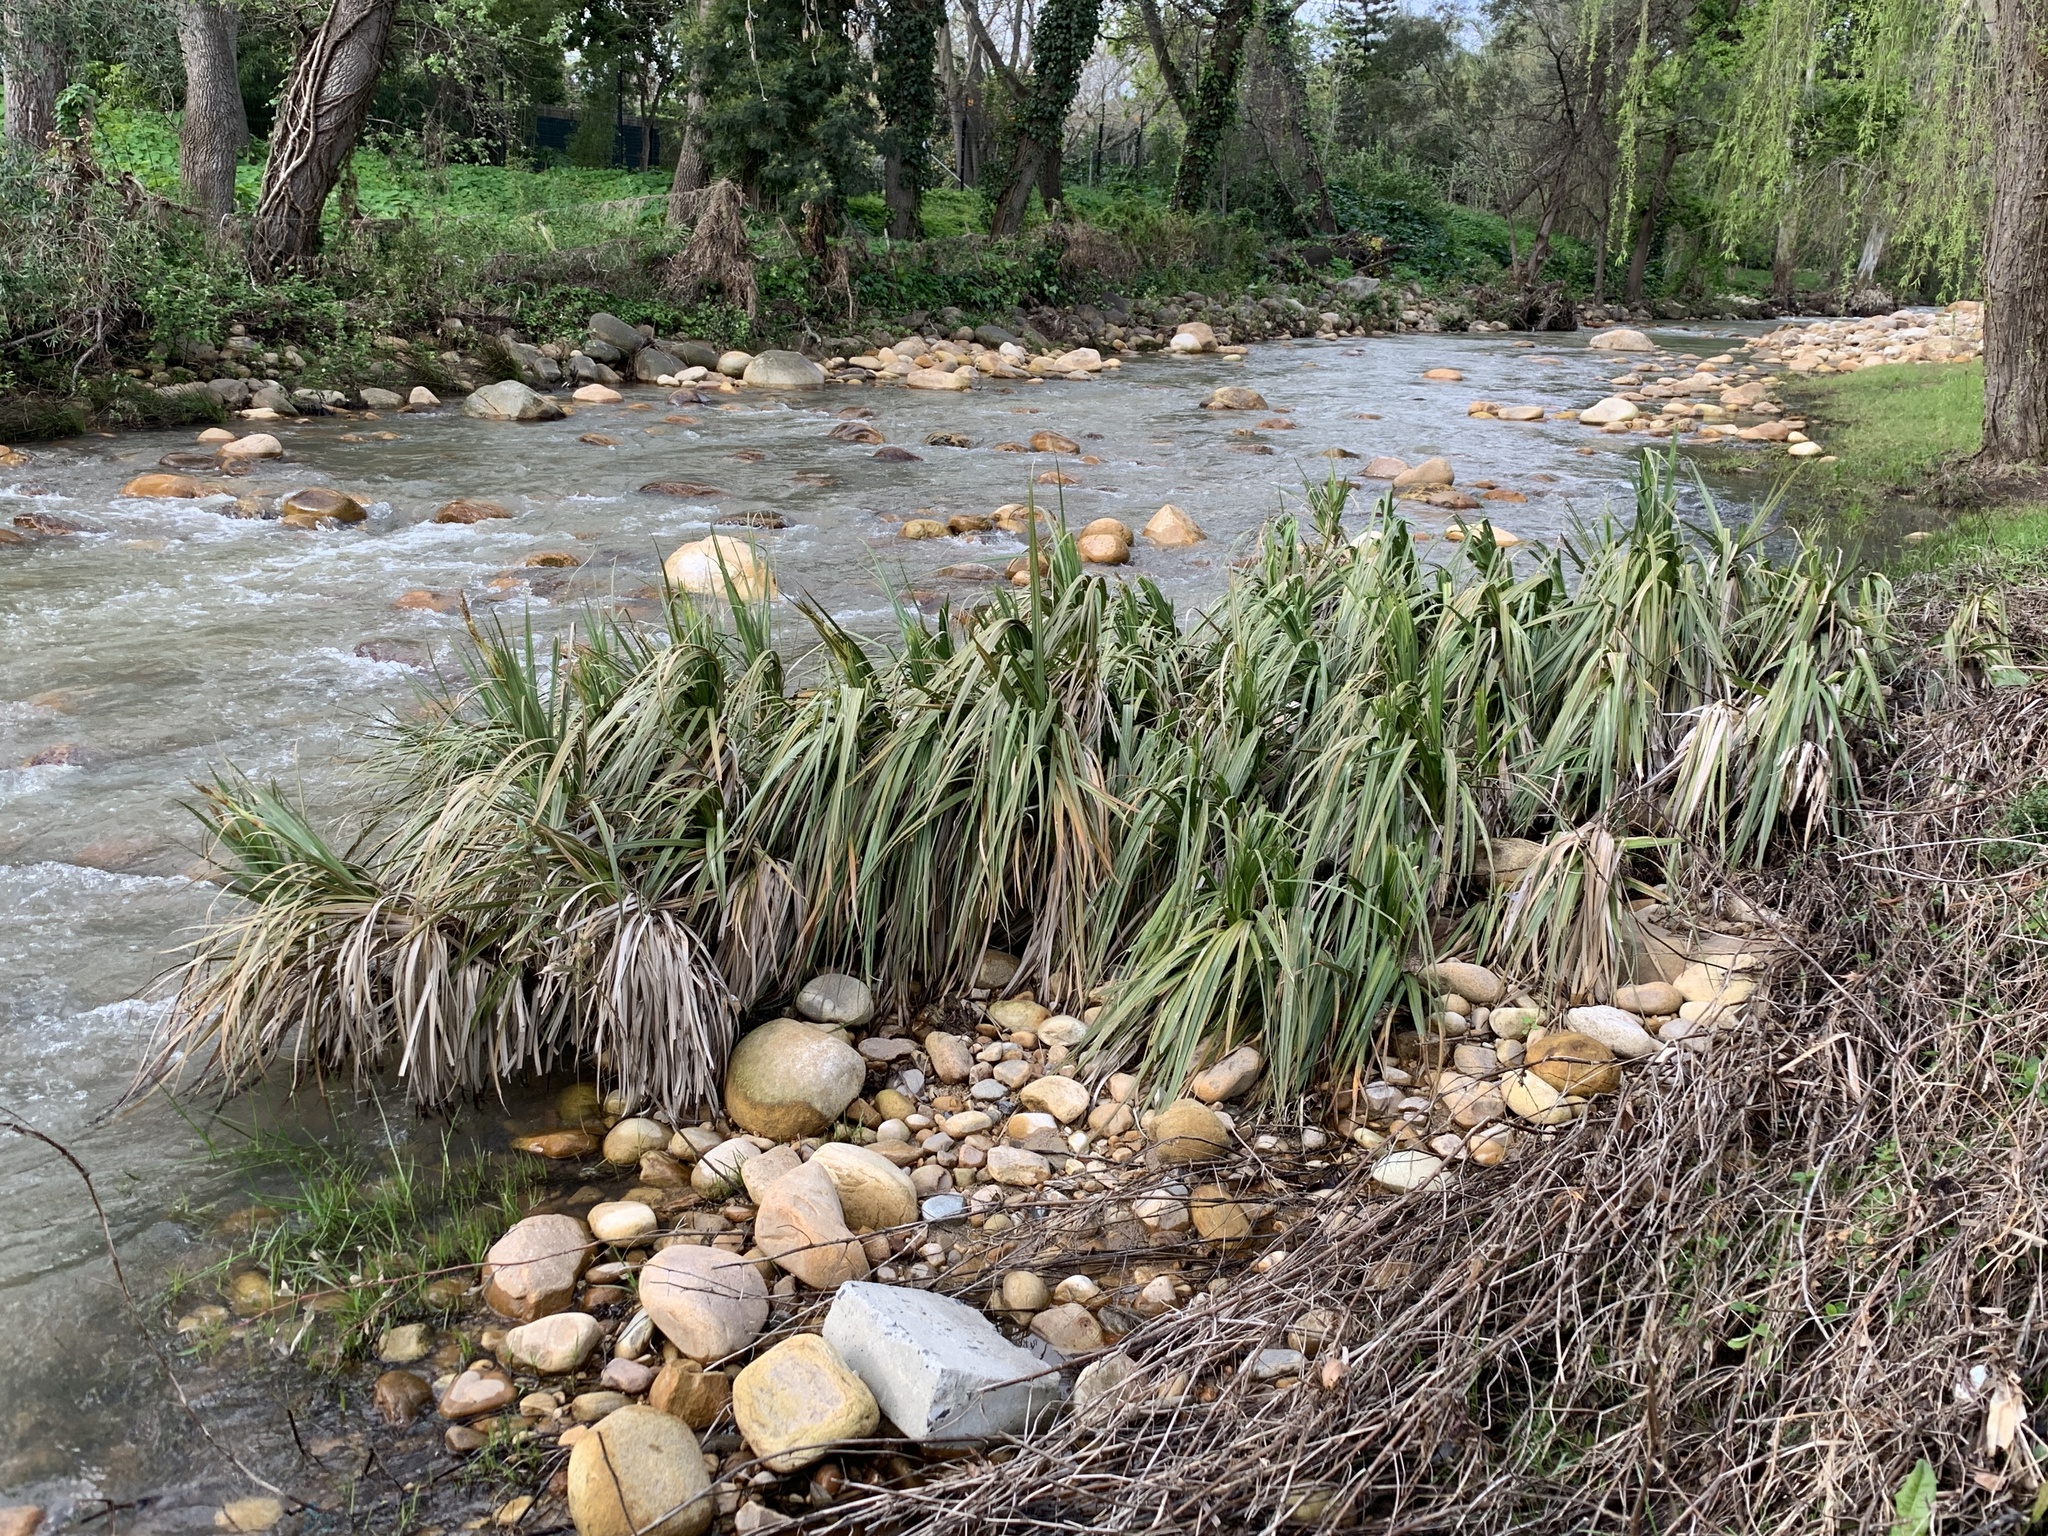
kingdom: Plantae
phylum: Tracheophyta
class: Liliopsida
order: Poales
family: Thurniaceae
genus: Prionium
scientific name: Prionium serratum
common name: Palmiet
